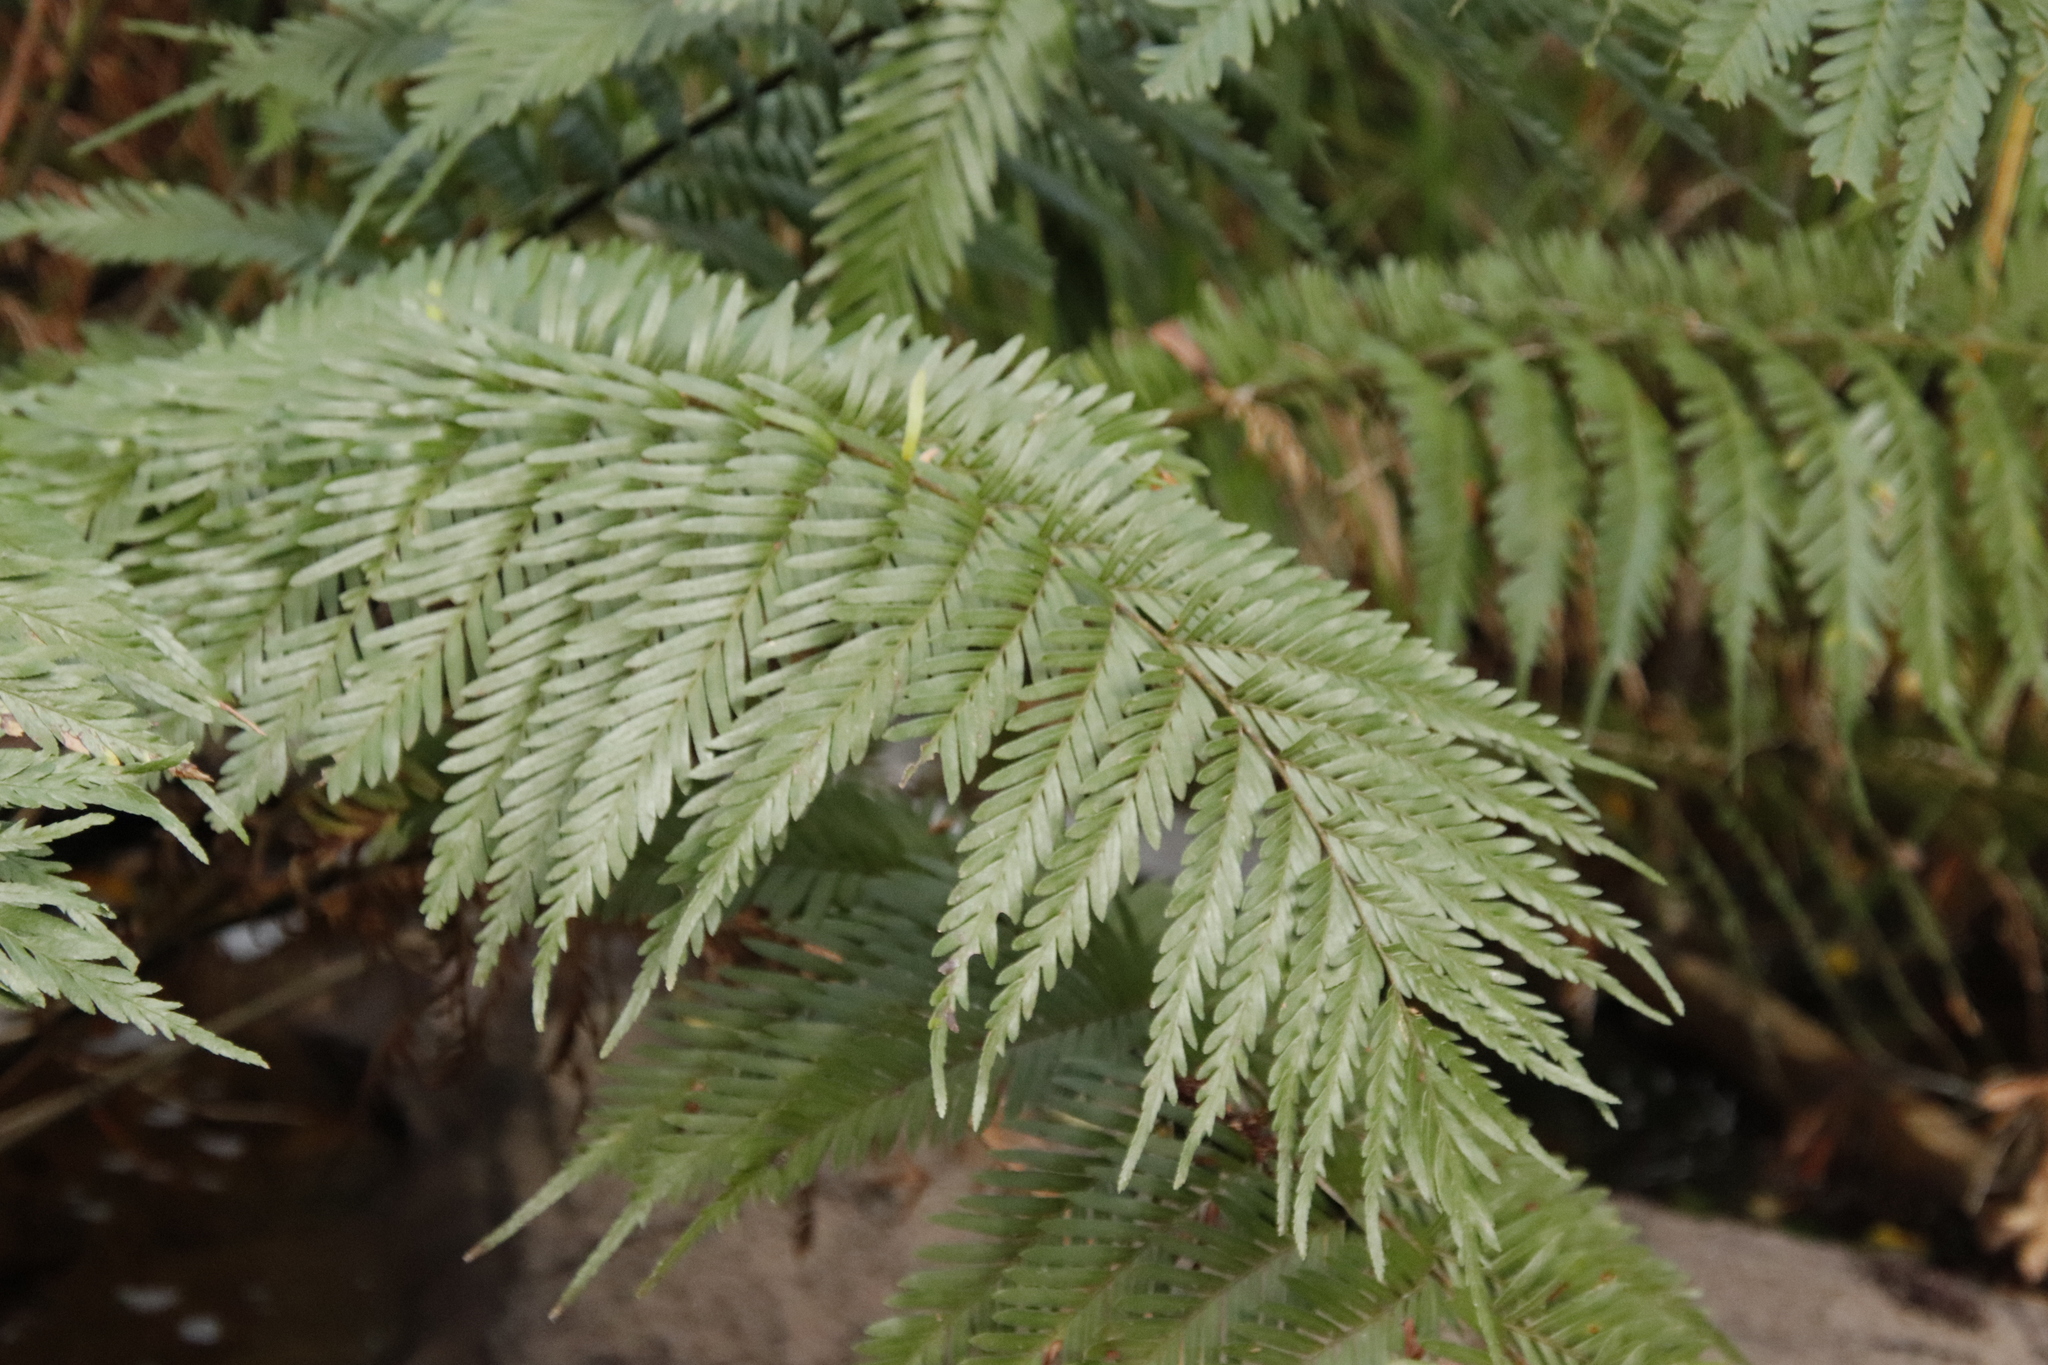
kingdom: Plantae
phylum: Tracheophyta
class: Polypodiopsida
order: Osmundales
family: Osmundaceae
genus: Todea
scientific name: Todea barbara
